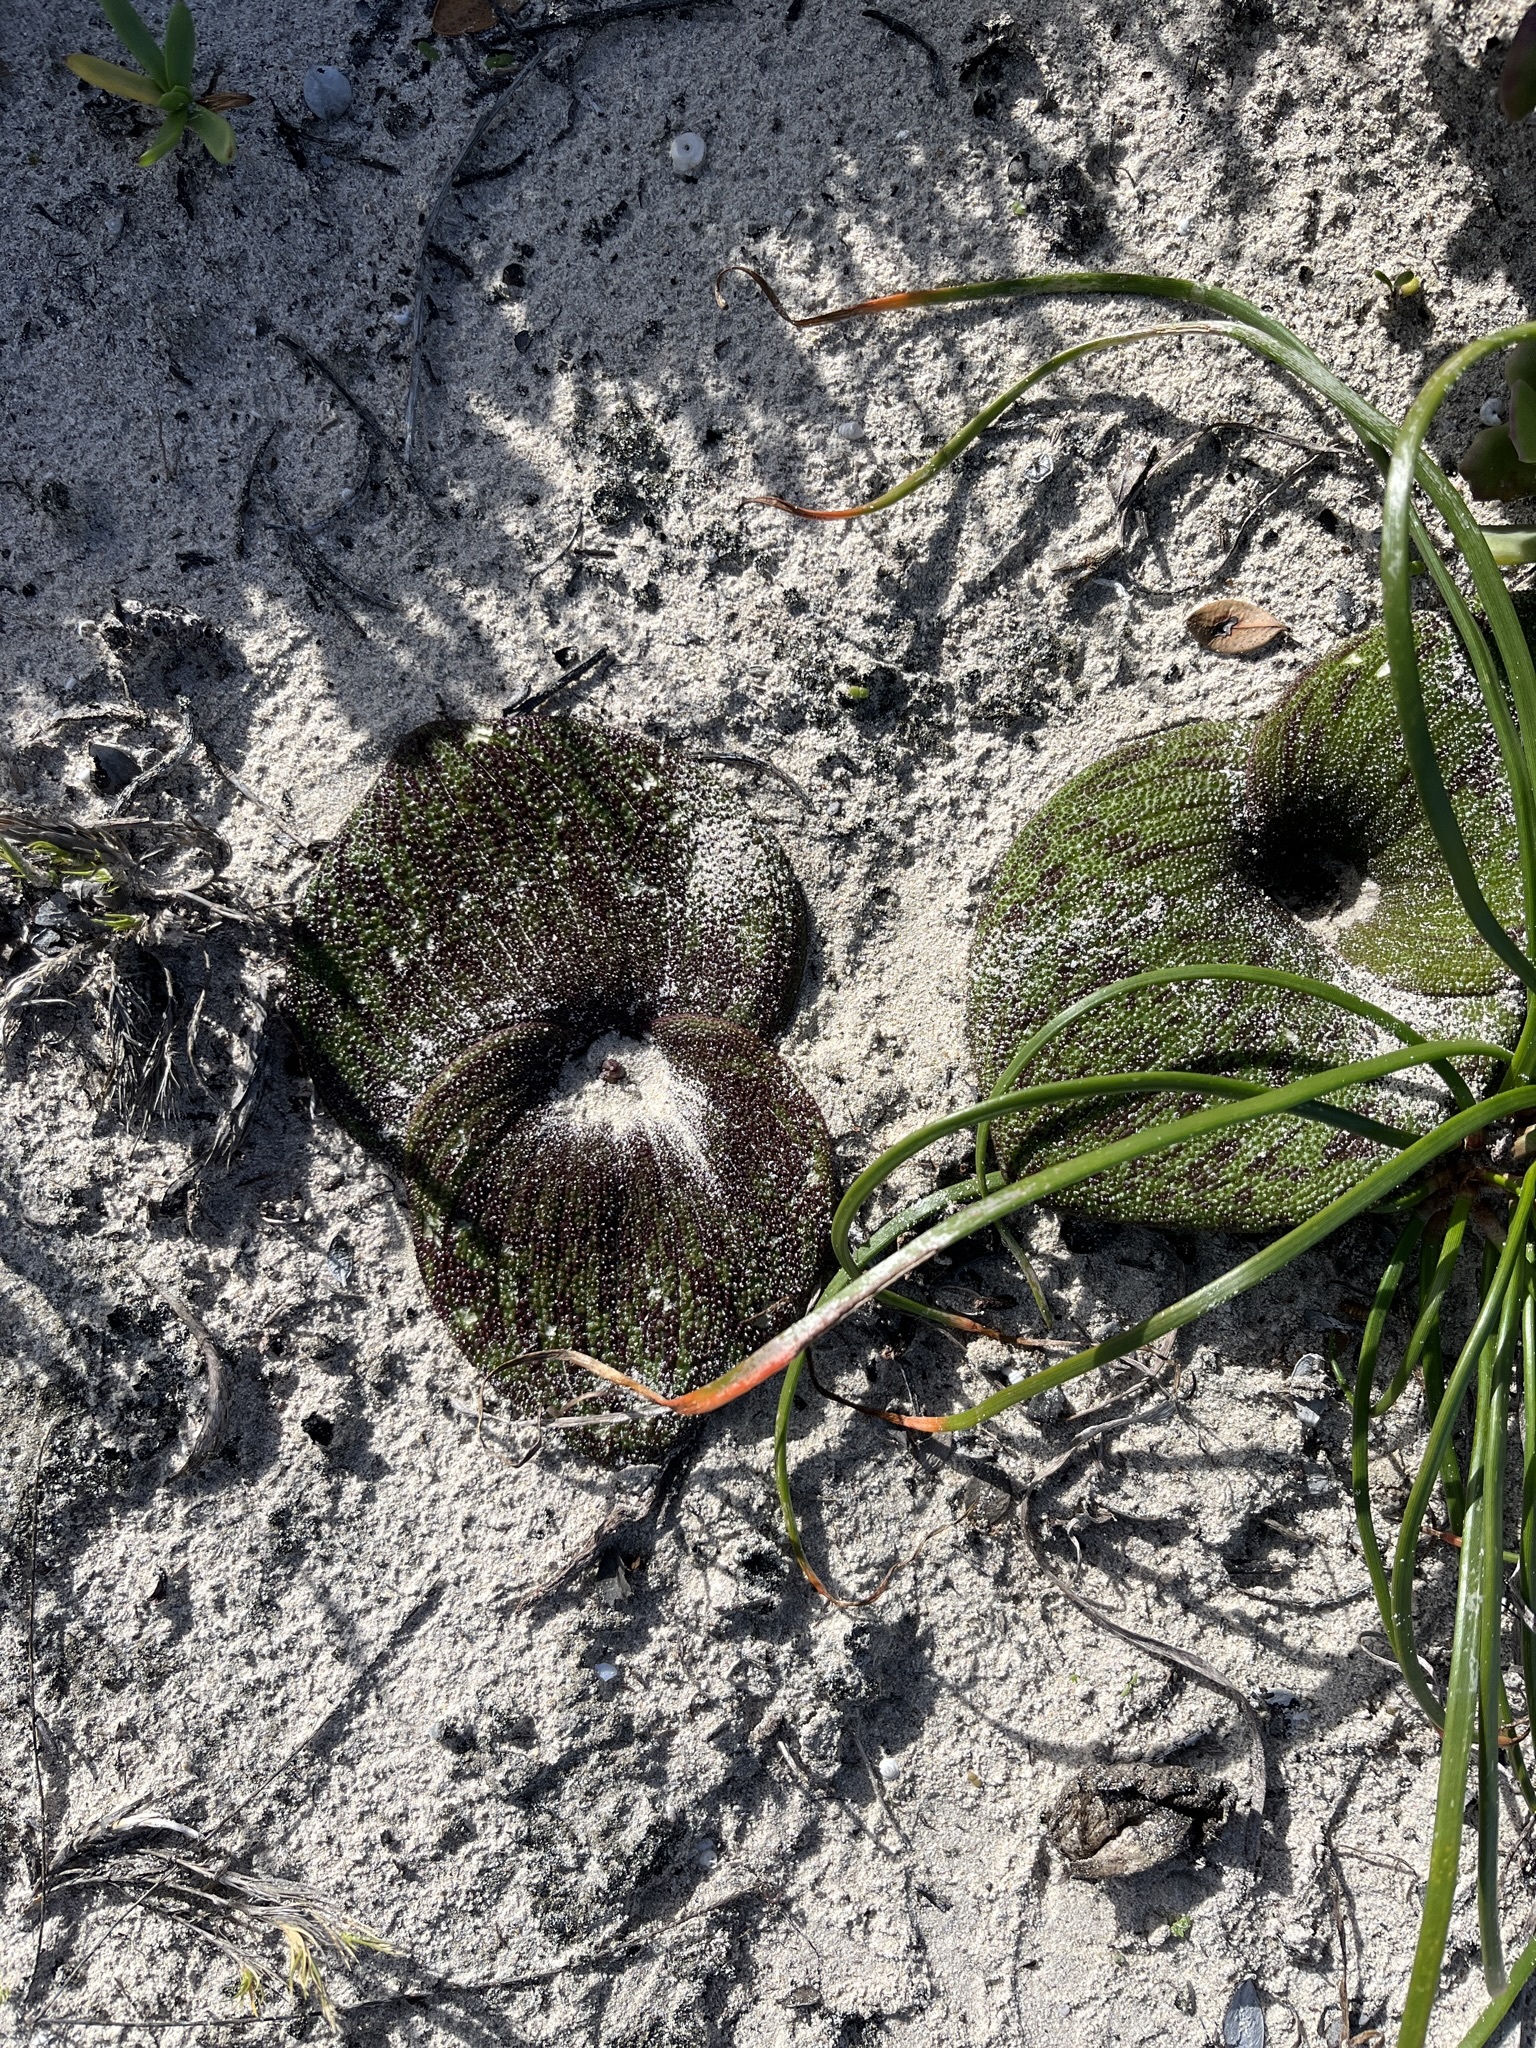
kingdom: Plantae
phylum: Tracheophyta
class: Liliopsida
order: Asparagales
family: Asparagaceae
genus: Massonia
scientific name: Massonia longipes
